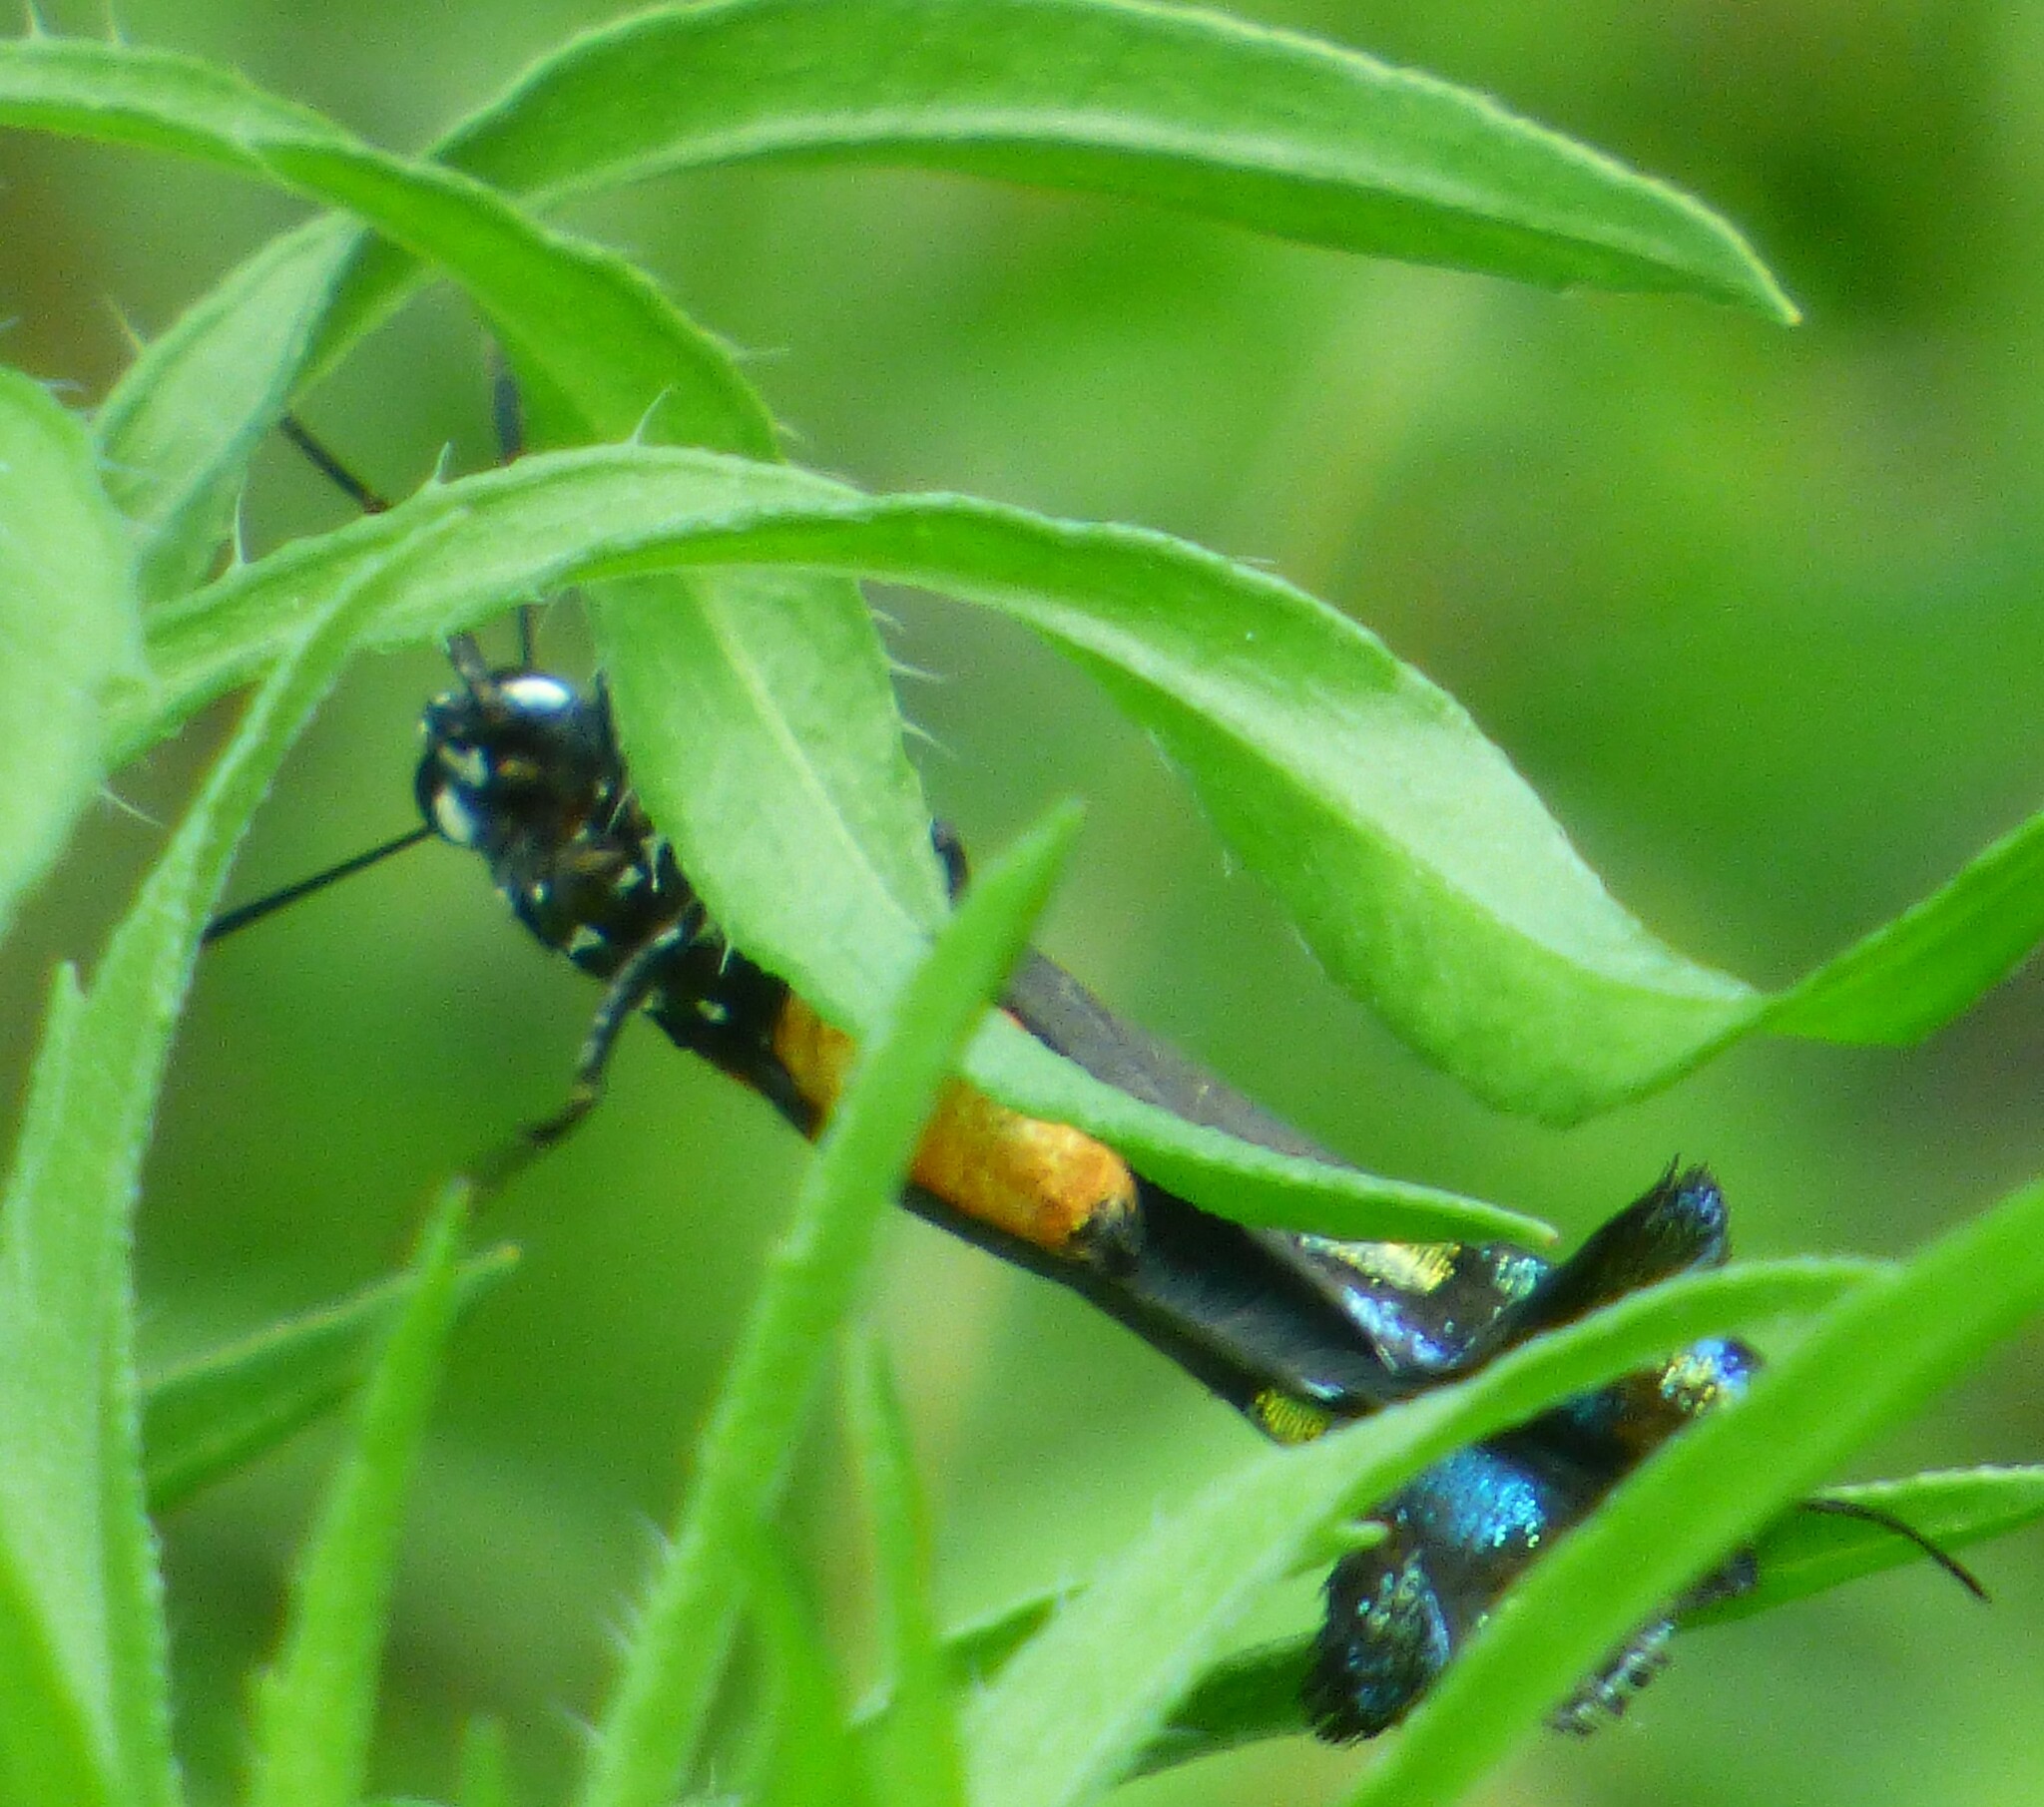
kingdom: Animalia
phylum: Arthropoda
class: Insecta
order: Lepidoptera
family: Lycaenidae
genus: Atlides
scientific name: Atlides halesus
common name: Great purple hairstreak
